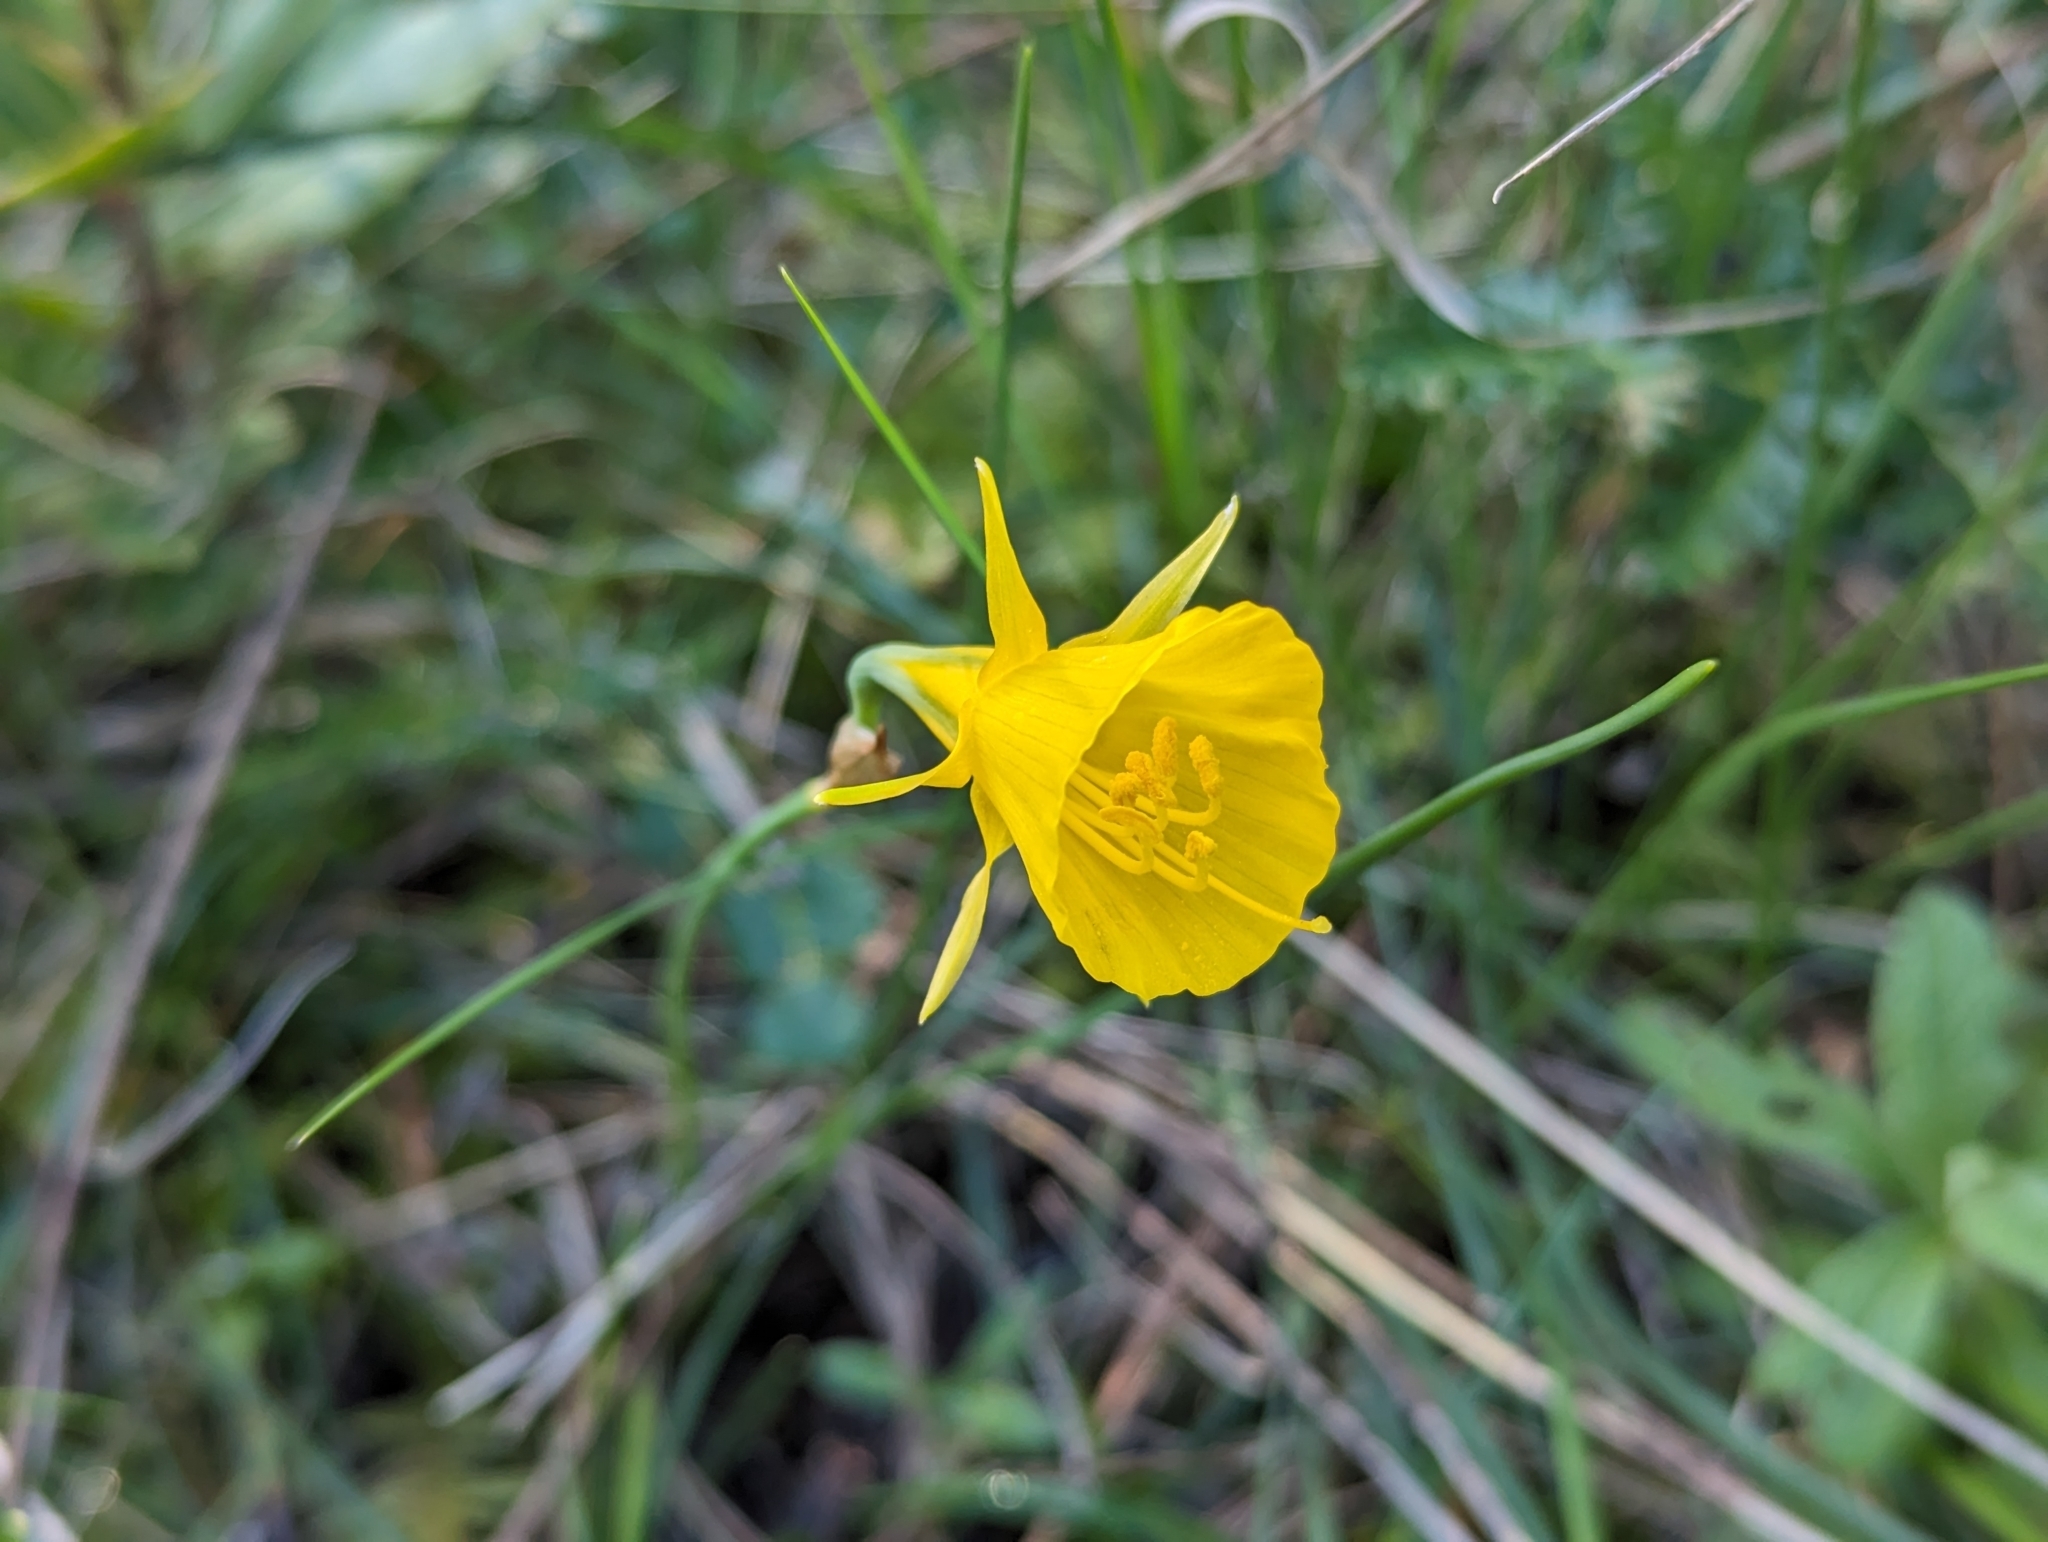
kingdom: Plantae
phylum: Tracheophyta
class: Liliopsida
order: Asparagales
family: Amaryllidaceae
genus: Narcissus
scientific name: Narcissus bulbocodium
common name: Hoop-petticoat daffodil
